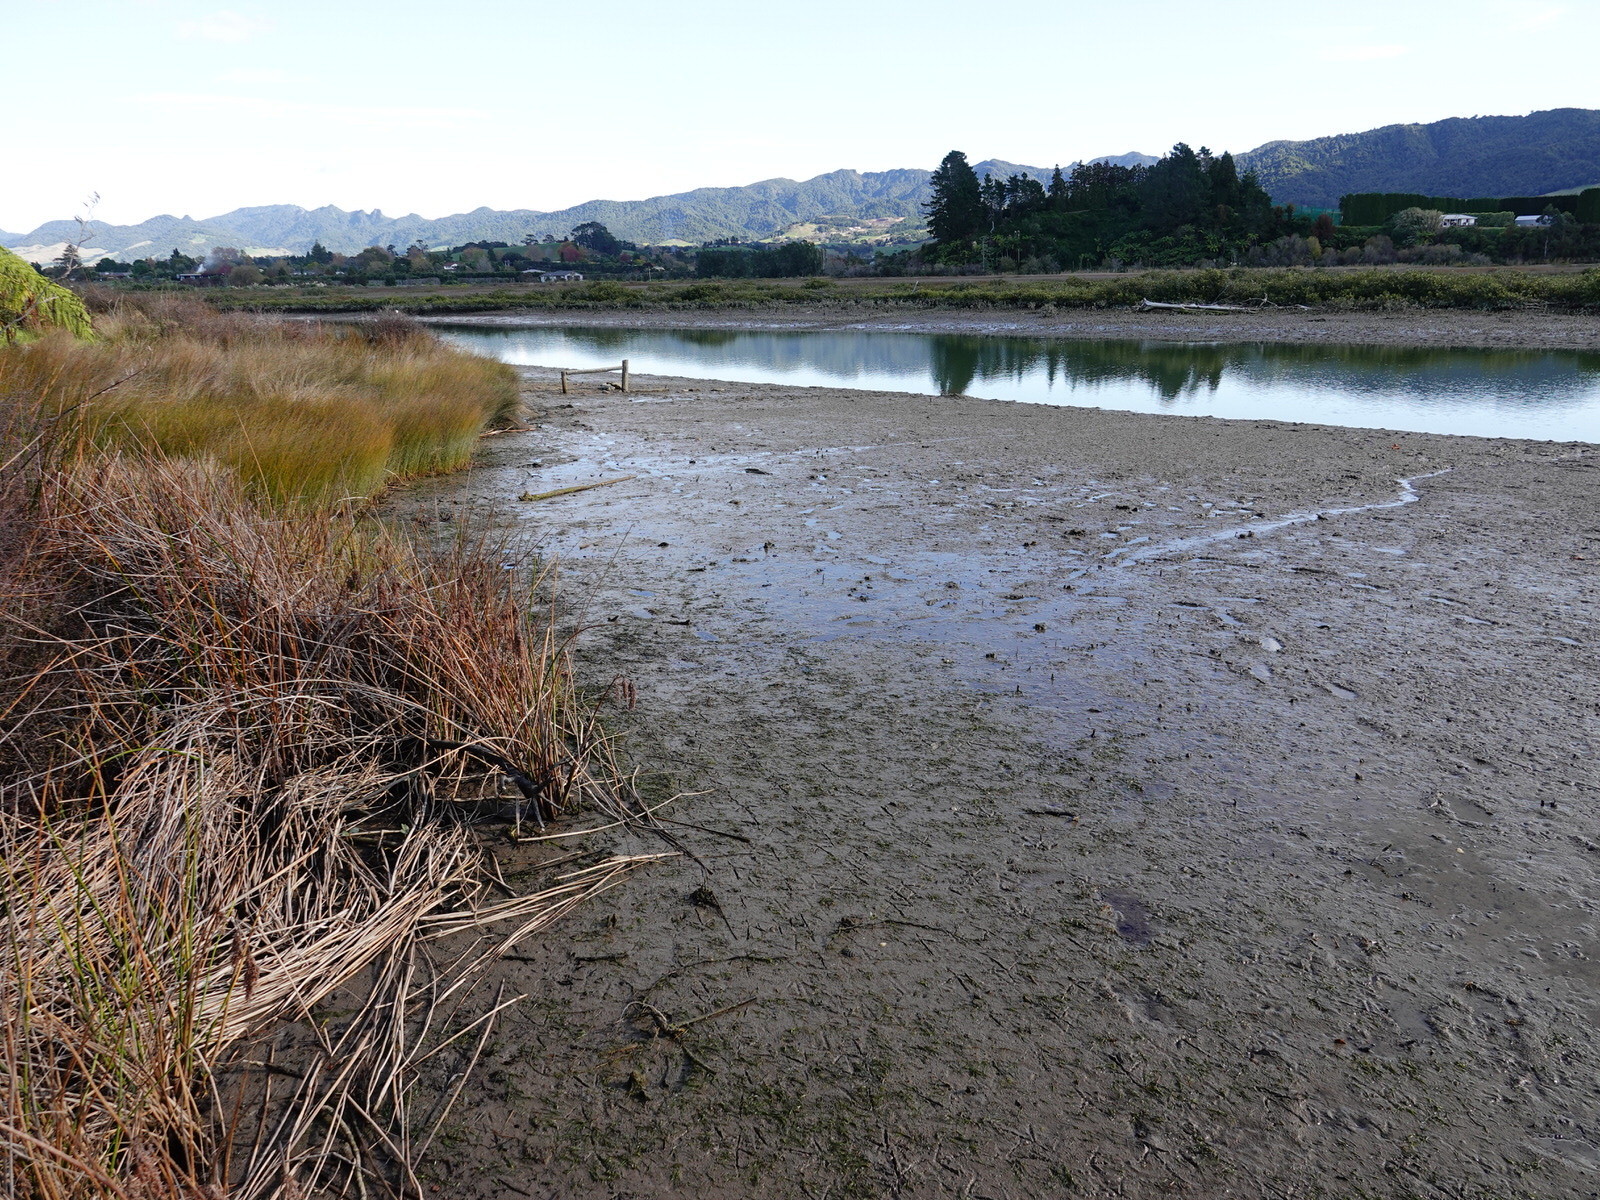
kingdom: Plantae
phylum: Tracheophyta
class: Liliopsida
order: Alismatales
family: Zosteraceae
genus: Zostera
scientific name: Zostera novazelandica
